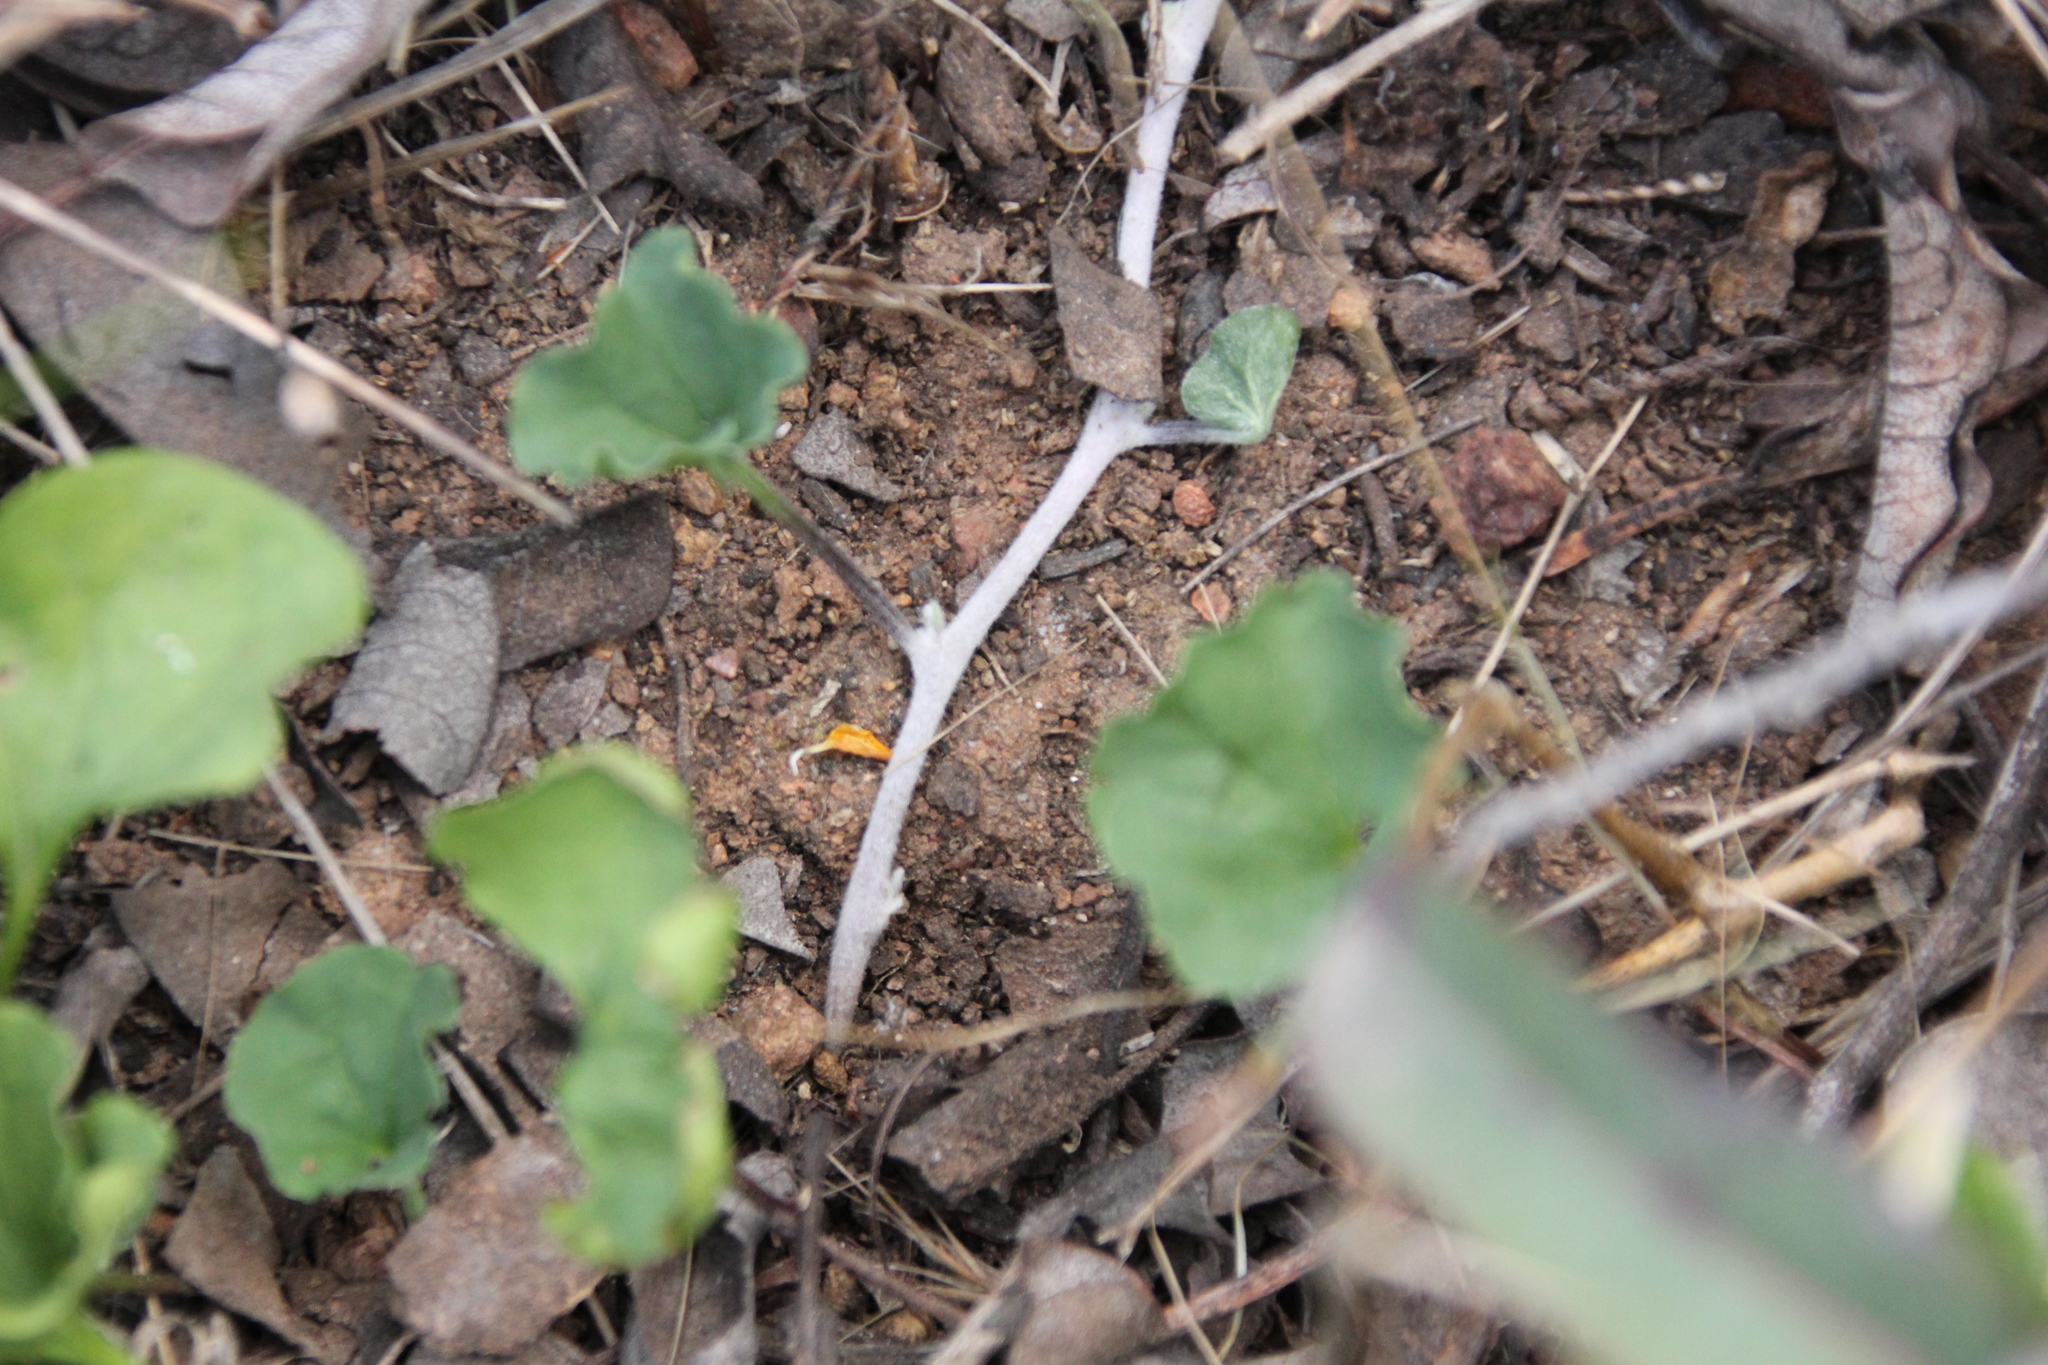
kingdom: Plantae
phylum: Tracheophyta
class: Magnoliopsida
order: Solanales
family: Convolvulaceae
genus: Dichondra
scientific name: Dichondra occidentalis
